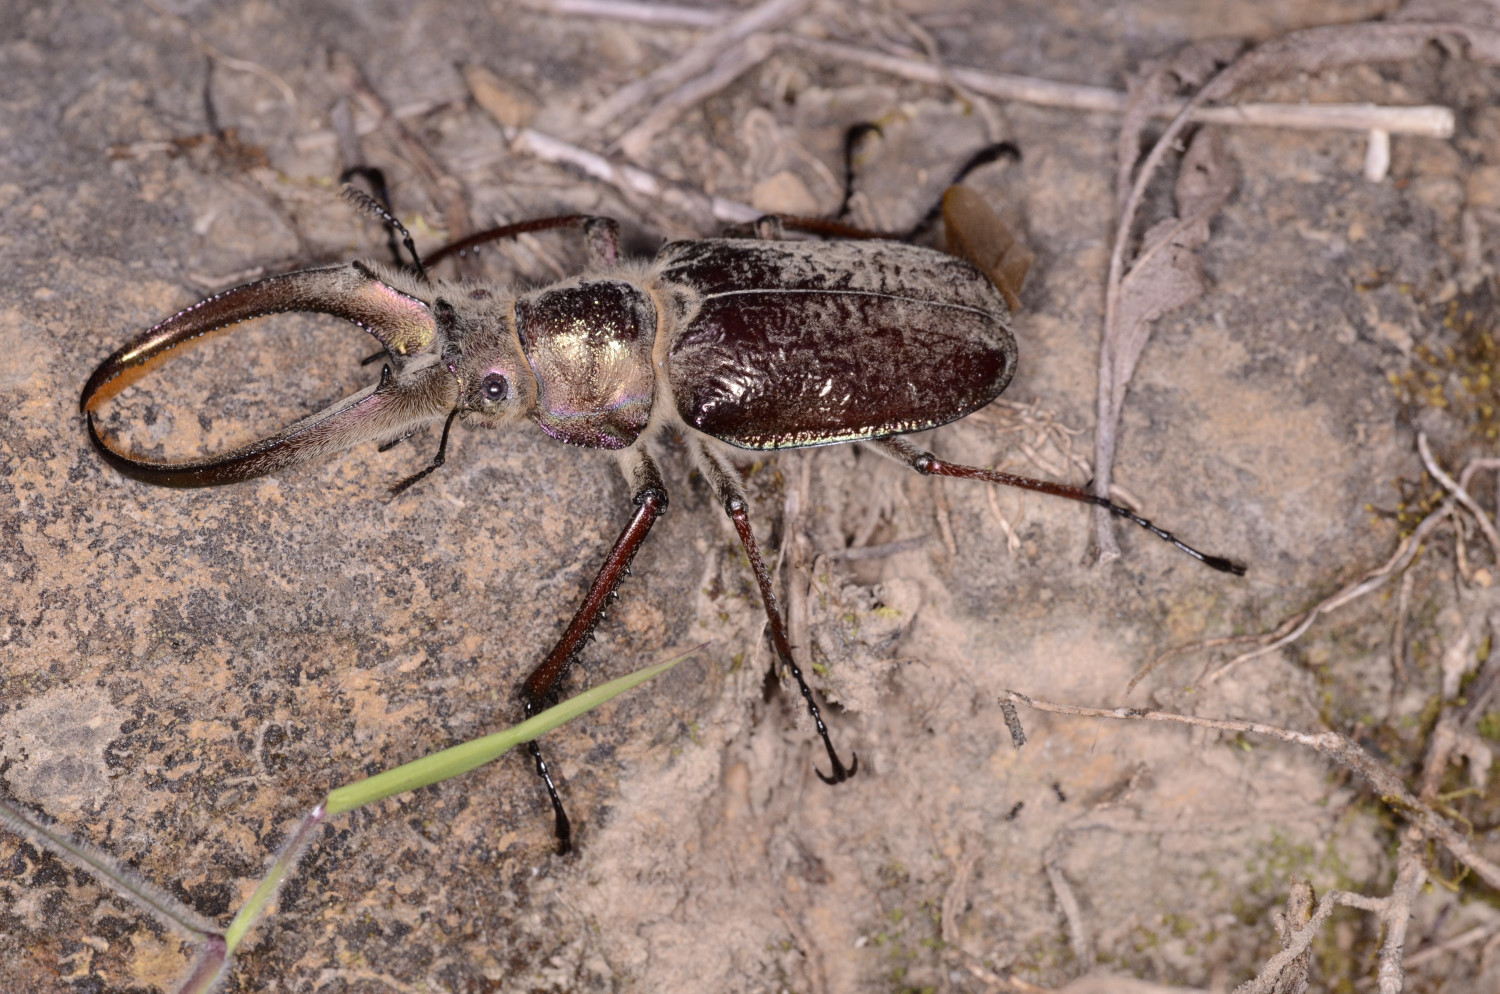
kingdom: Animalia
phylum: Arthropoda
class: Insecta
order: Coleoptera
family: Lucanidae
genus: Sphaenognathus
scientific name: Sphaenognathus giganteus
